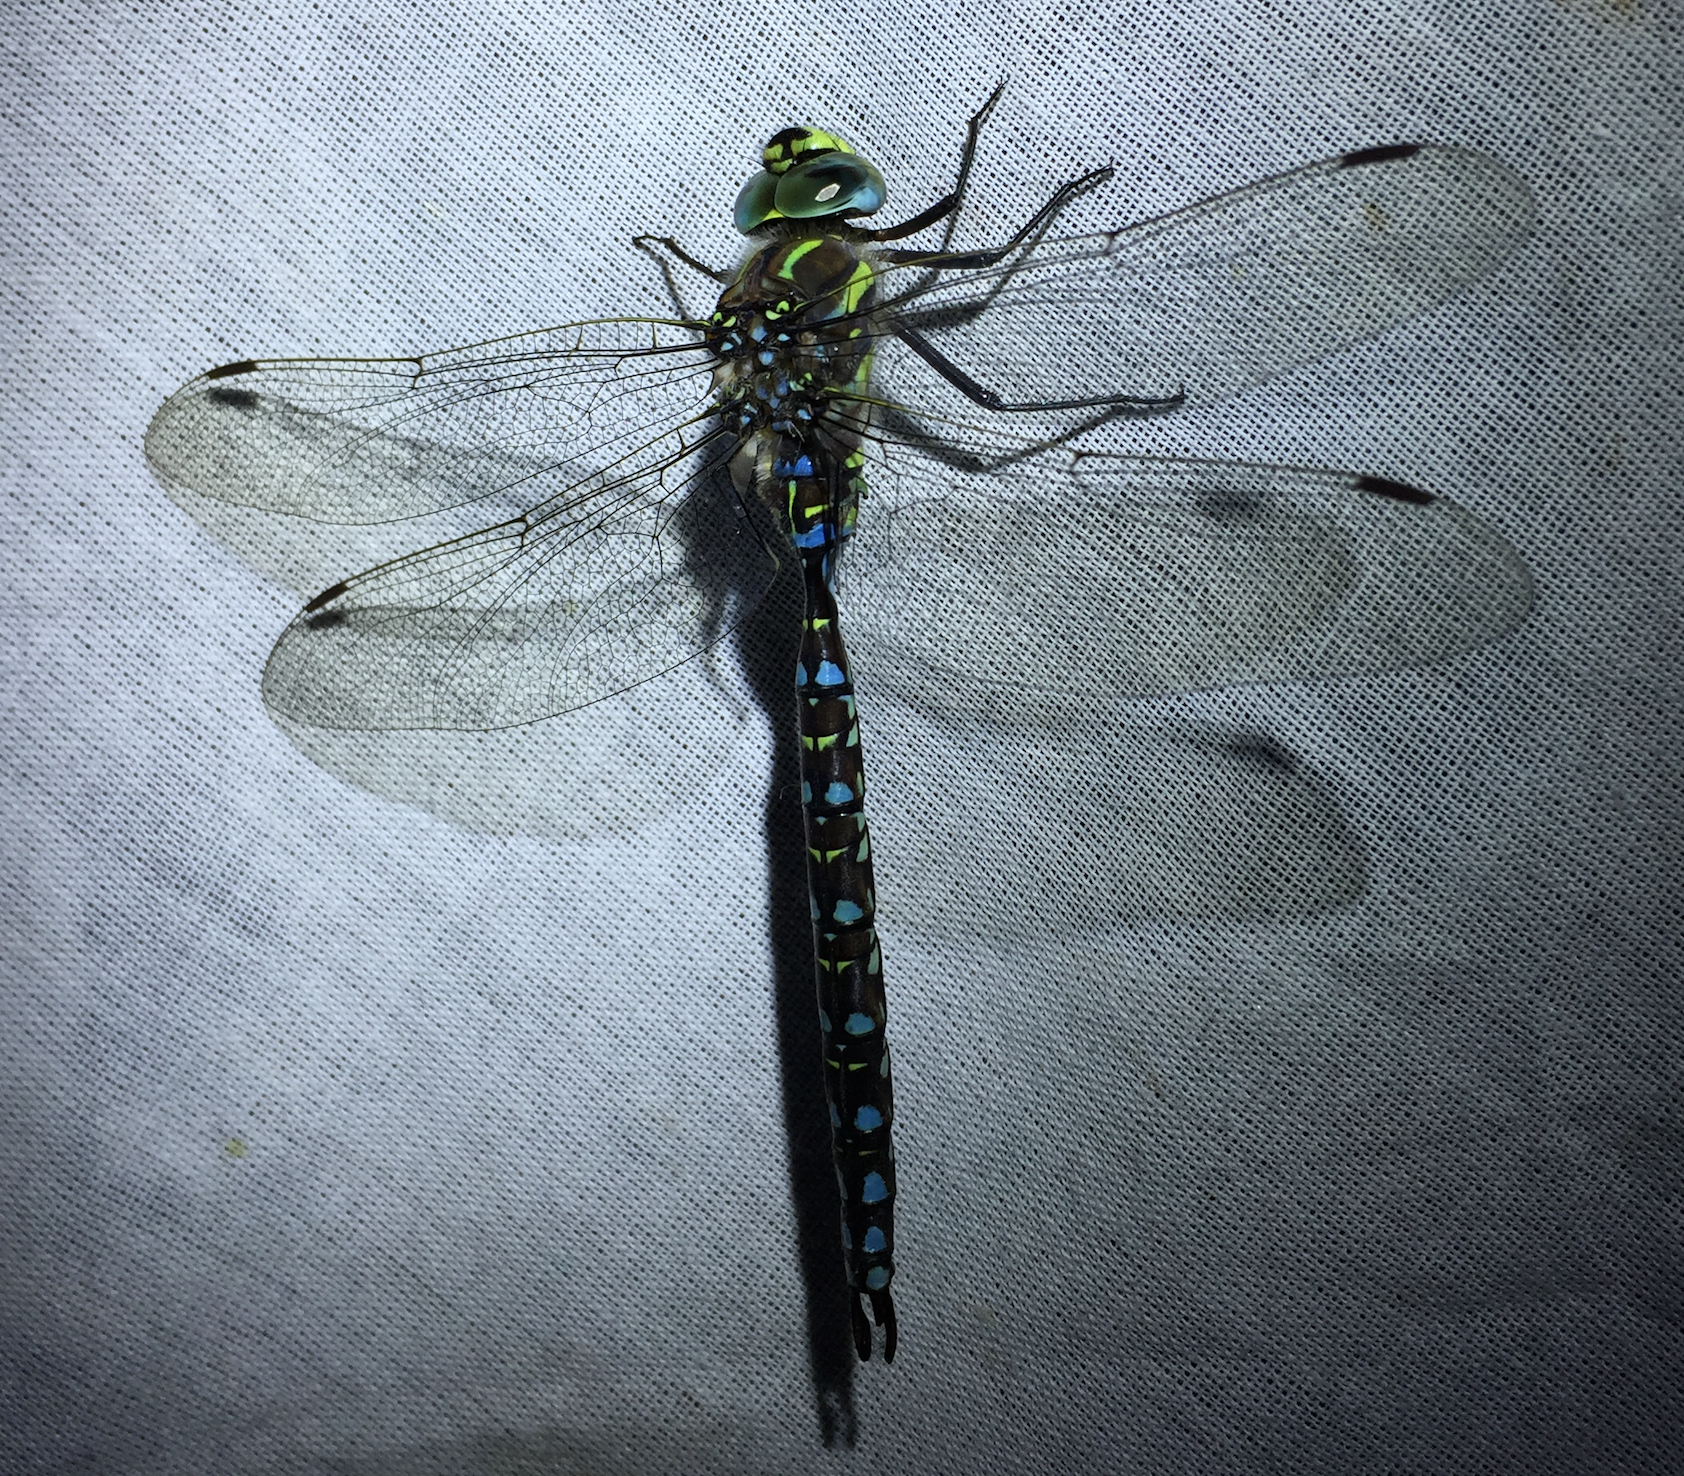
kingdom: Animalia
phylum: Arthropoda
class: Insecta
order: Odonata
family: Aeshnidae
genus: Aeshna
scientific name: Aeshna juncea
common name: Moorland hawker
